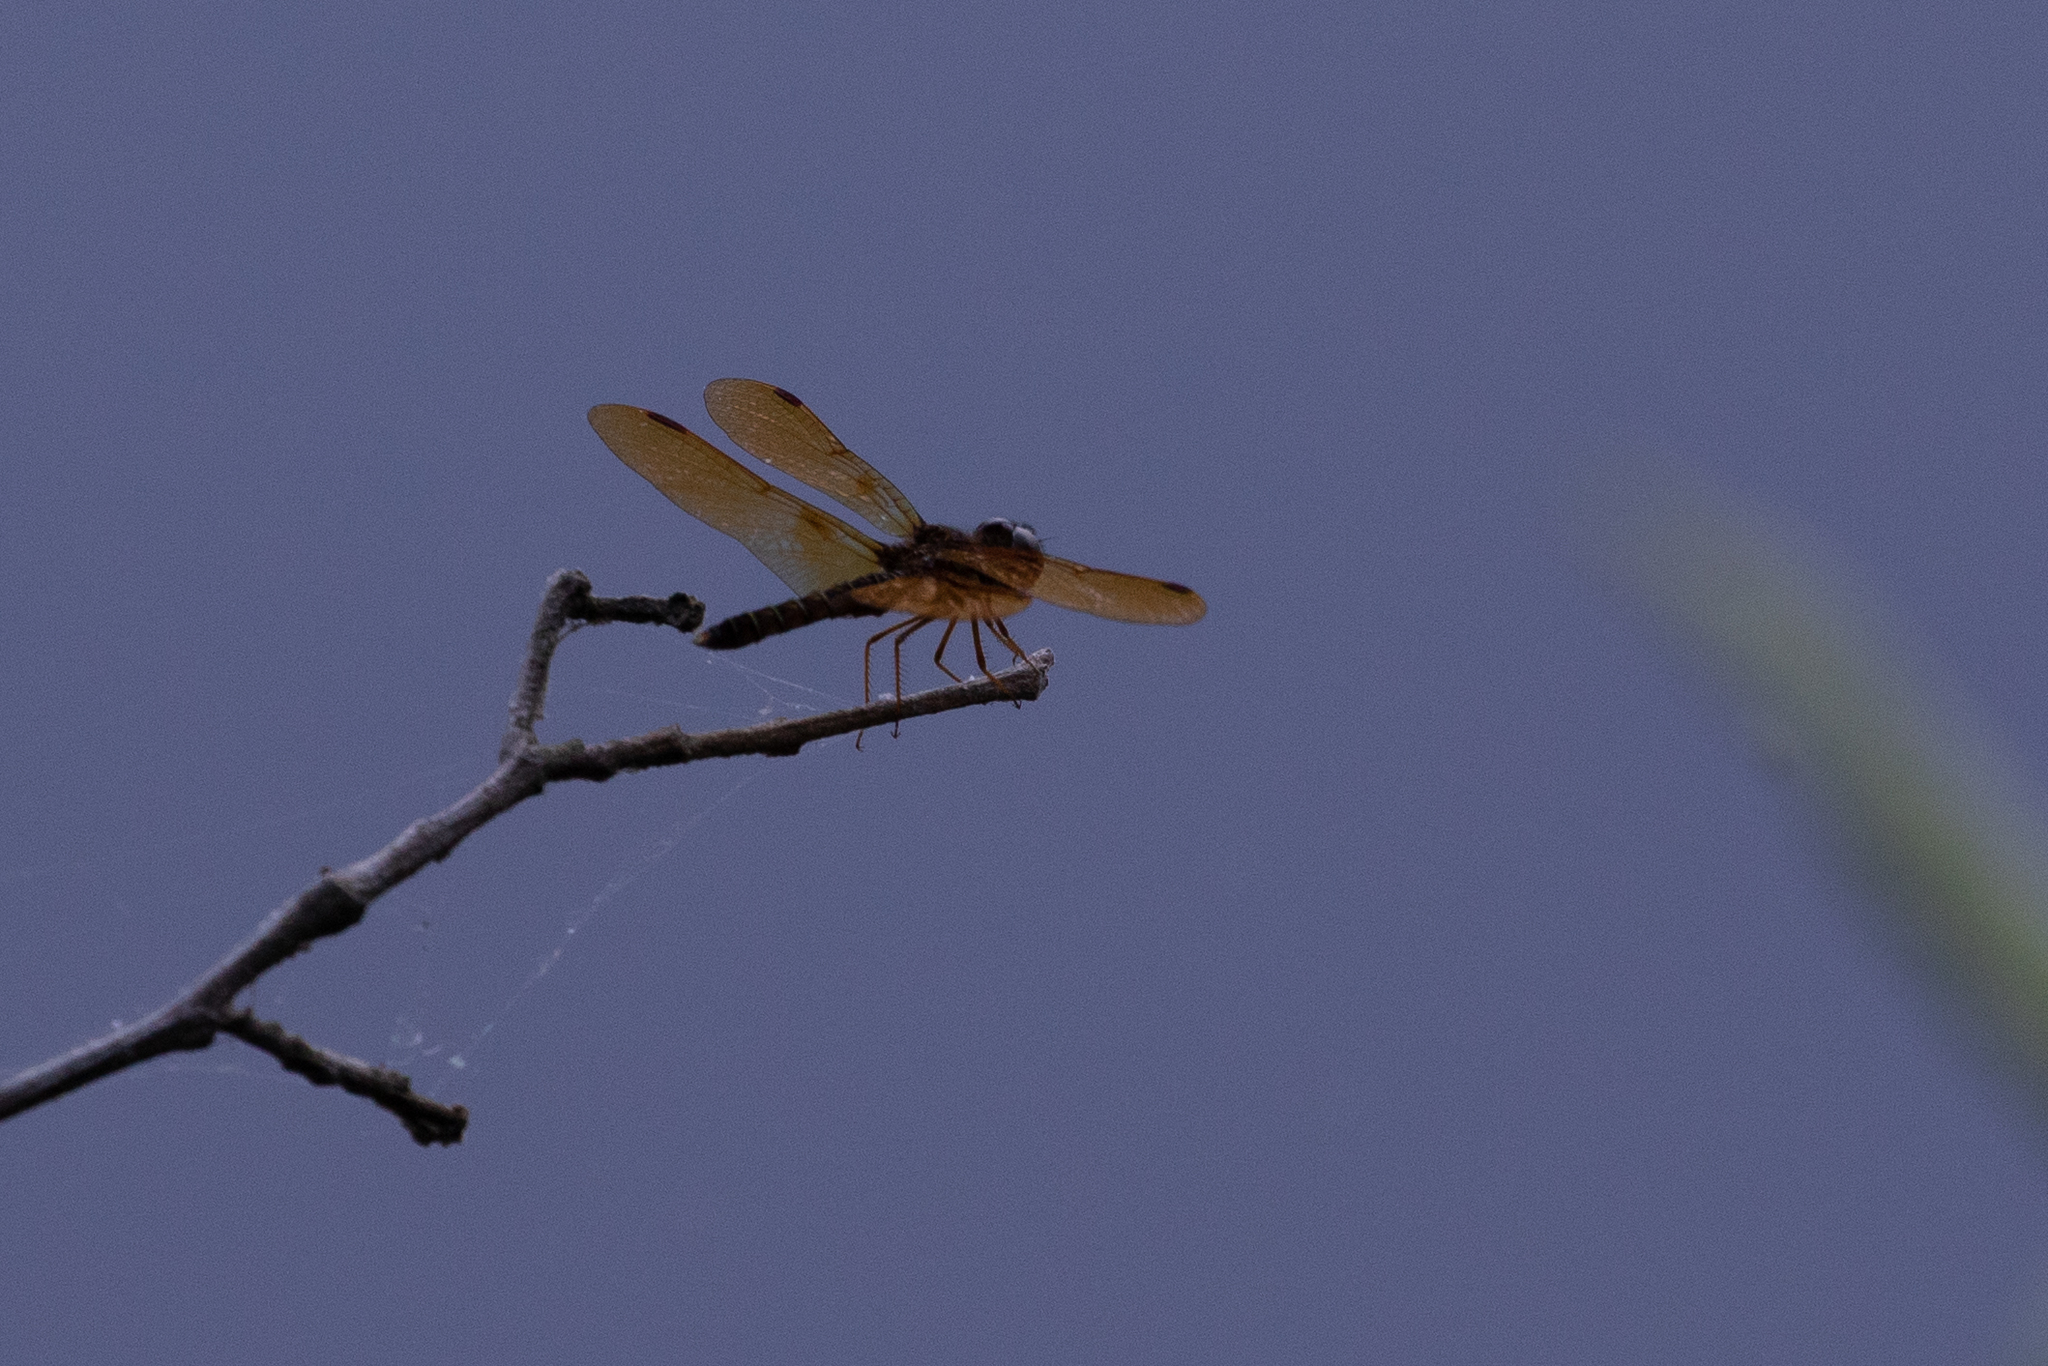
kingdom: Animalia
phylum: Arthropoda
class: Insecta
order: Odonata
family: Libellulidae
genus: Perithemis
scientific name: Perithemis tenera
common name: Eastern amberwing
